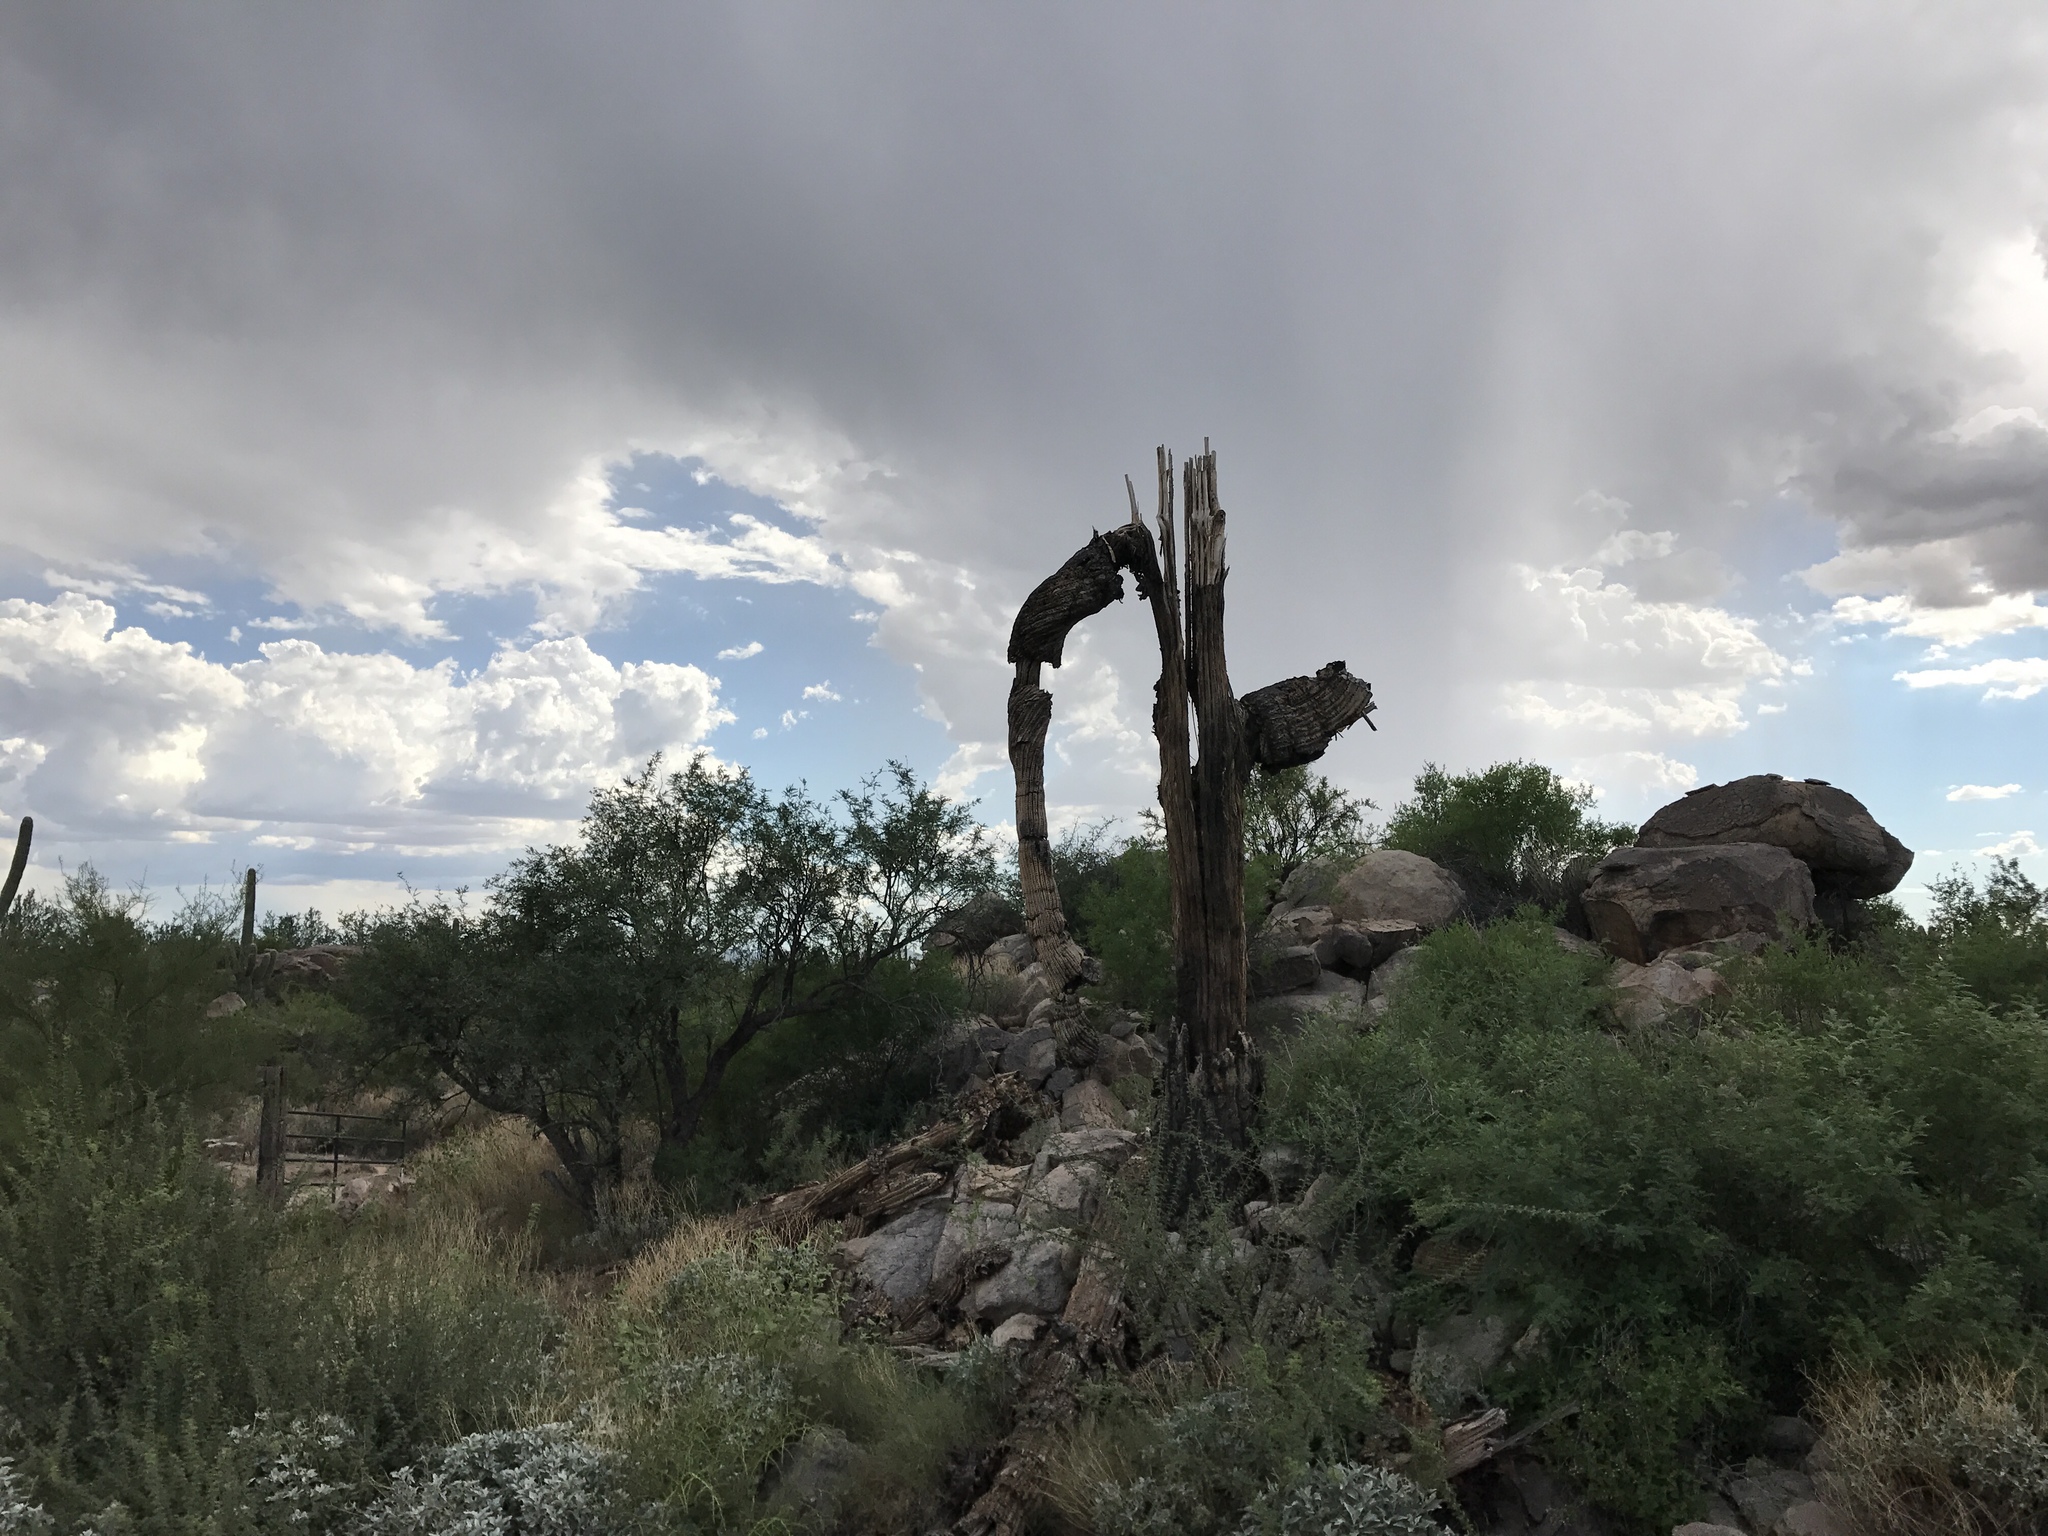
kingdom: Plantae
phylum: Tracheophyta
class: Magnoliopsida
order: Caryophyllales
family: Cactaceae
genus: Carnegiea
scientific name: Carnegiea gigantea
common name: Saguaro
